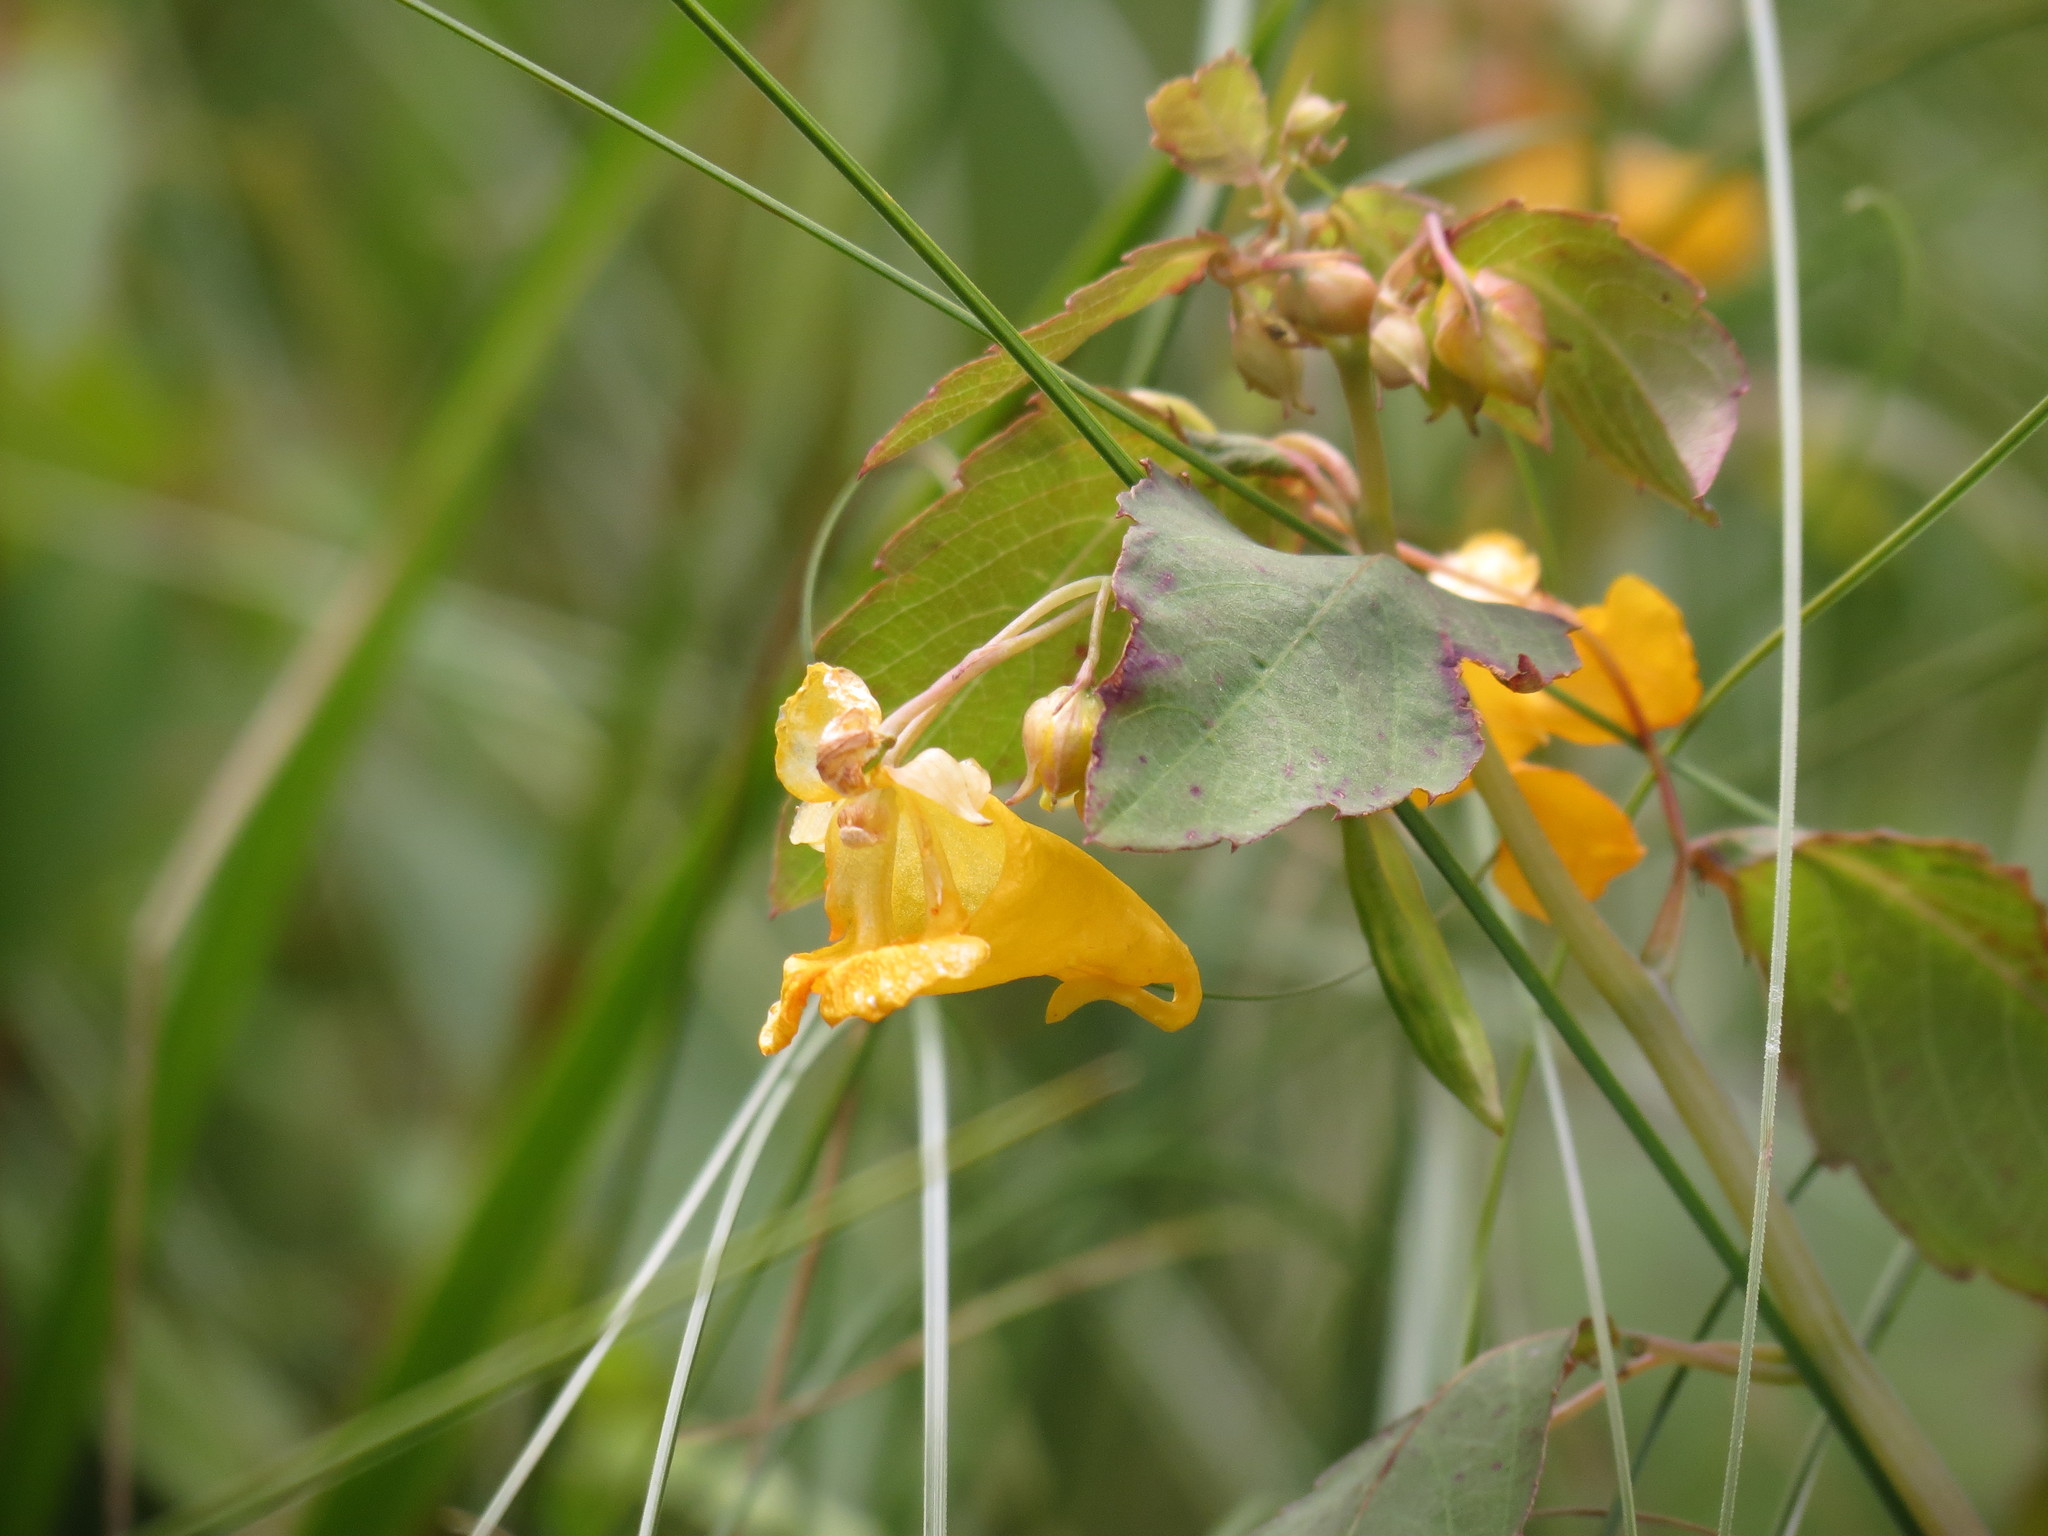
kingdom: Plantae
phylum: Tracheophyta
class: Magnoliopsida
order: Ericales
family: Balsaminaceae
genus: Impatiens
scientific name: Impatiens capensis
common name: Orange balsam
